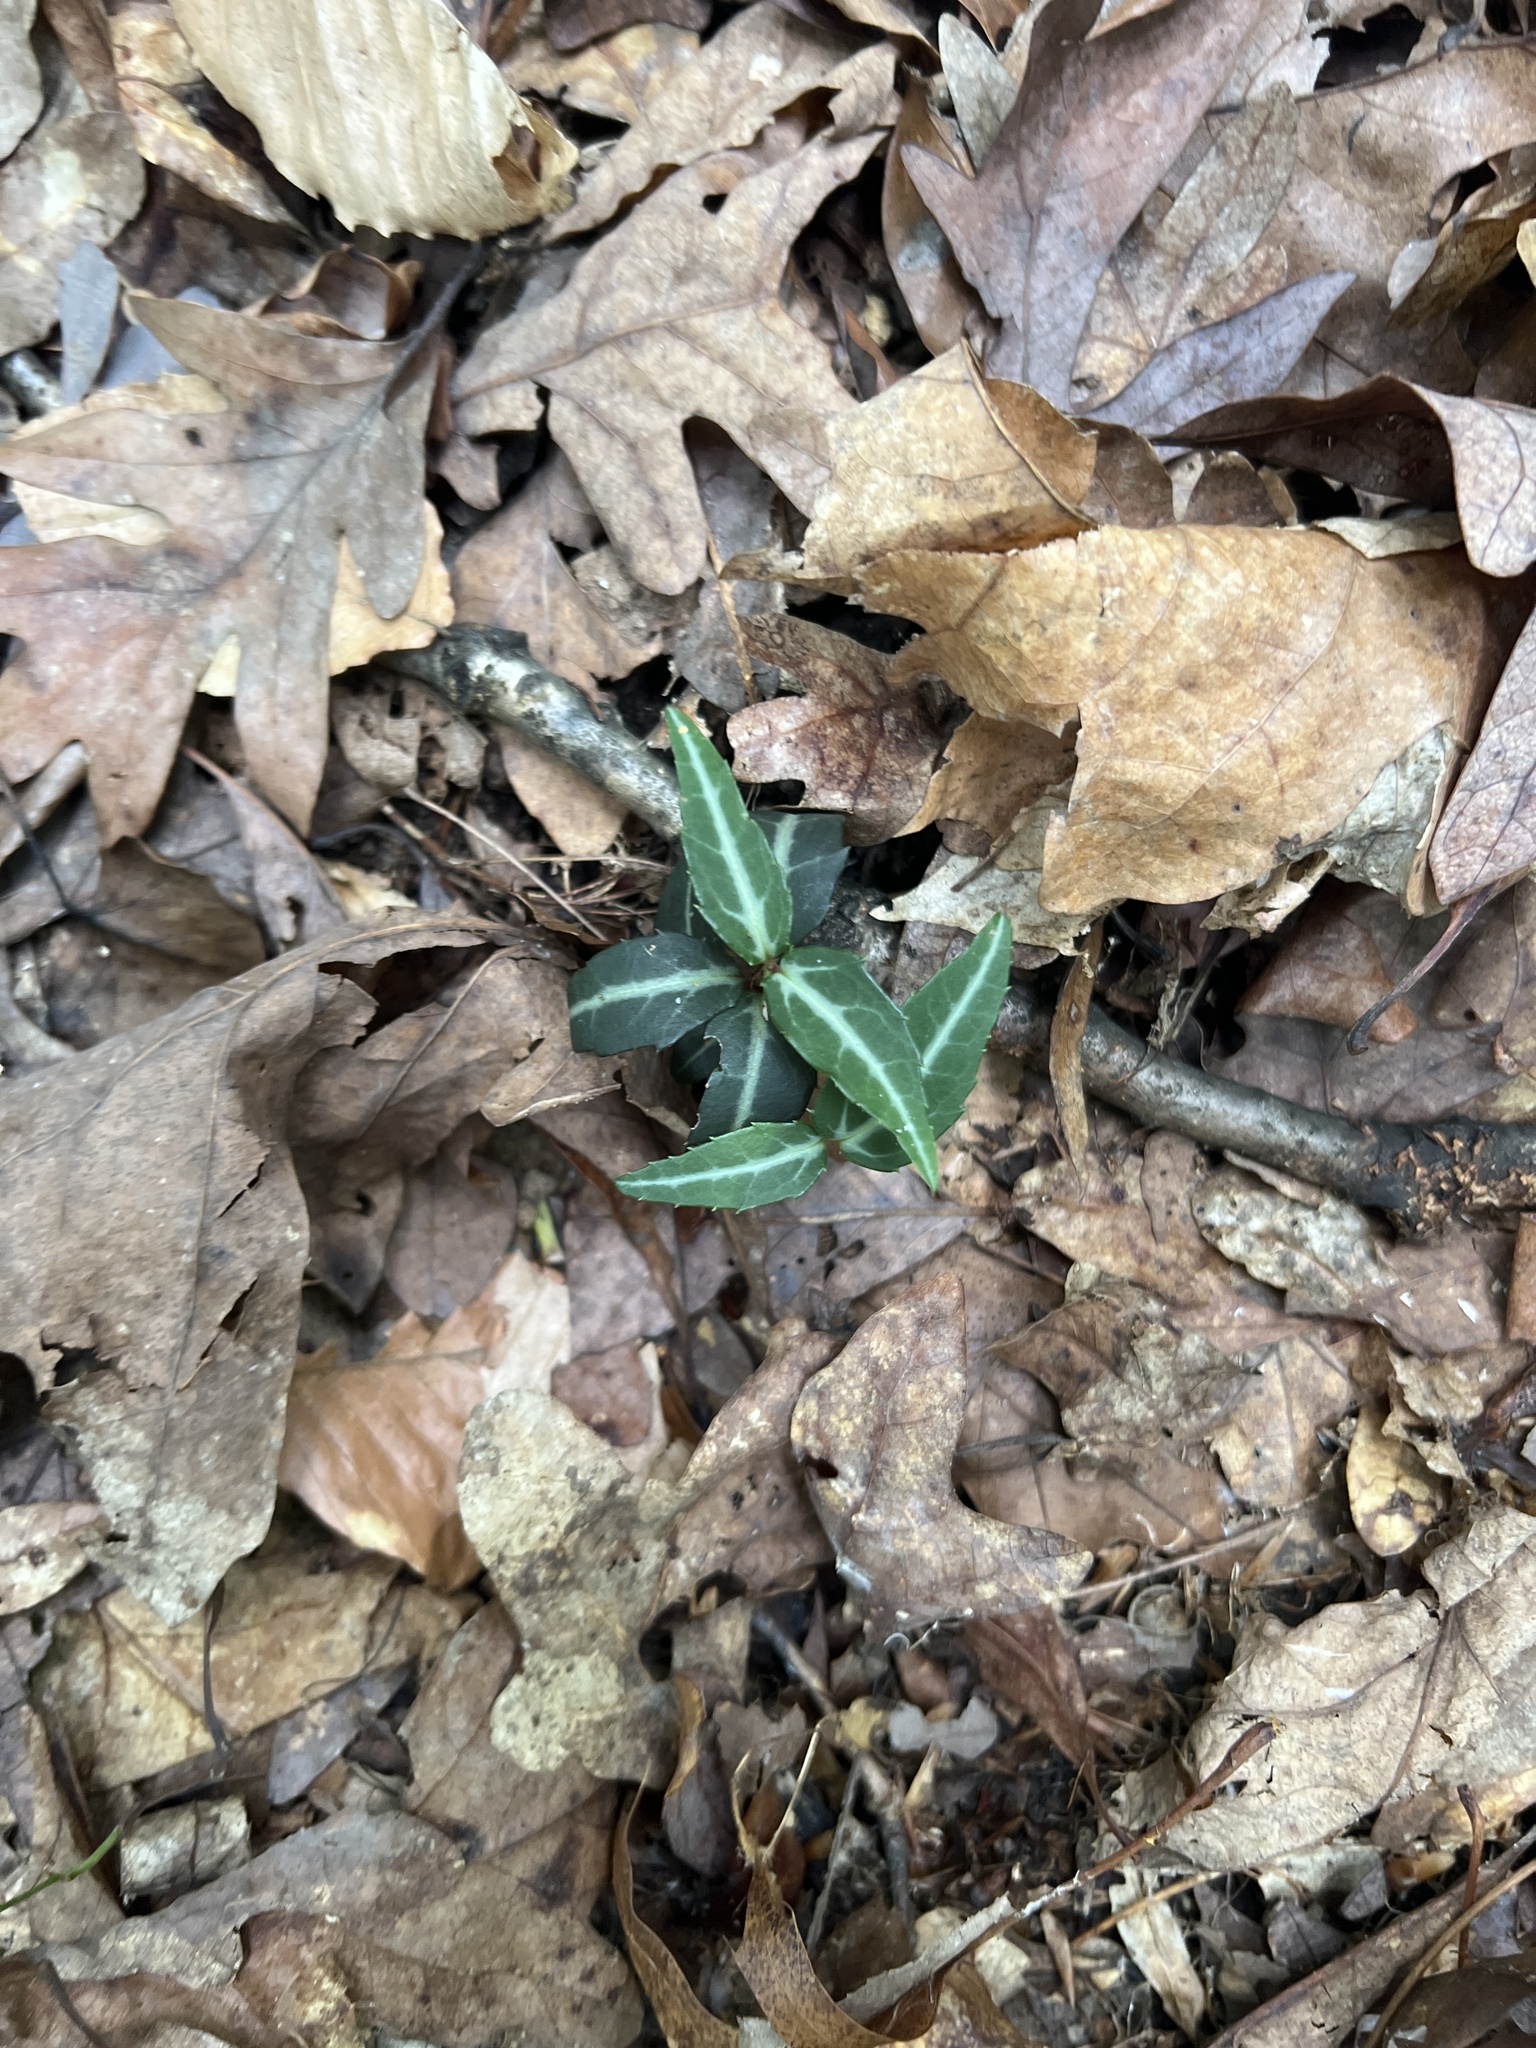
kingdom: Plantae
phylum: Tracheophyta
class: Magnoliopsida
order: Ericales
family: Ericaceae
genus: Chimaphila
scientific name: Chimaphila maculata
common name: Spotted pipsissewa
